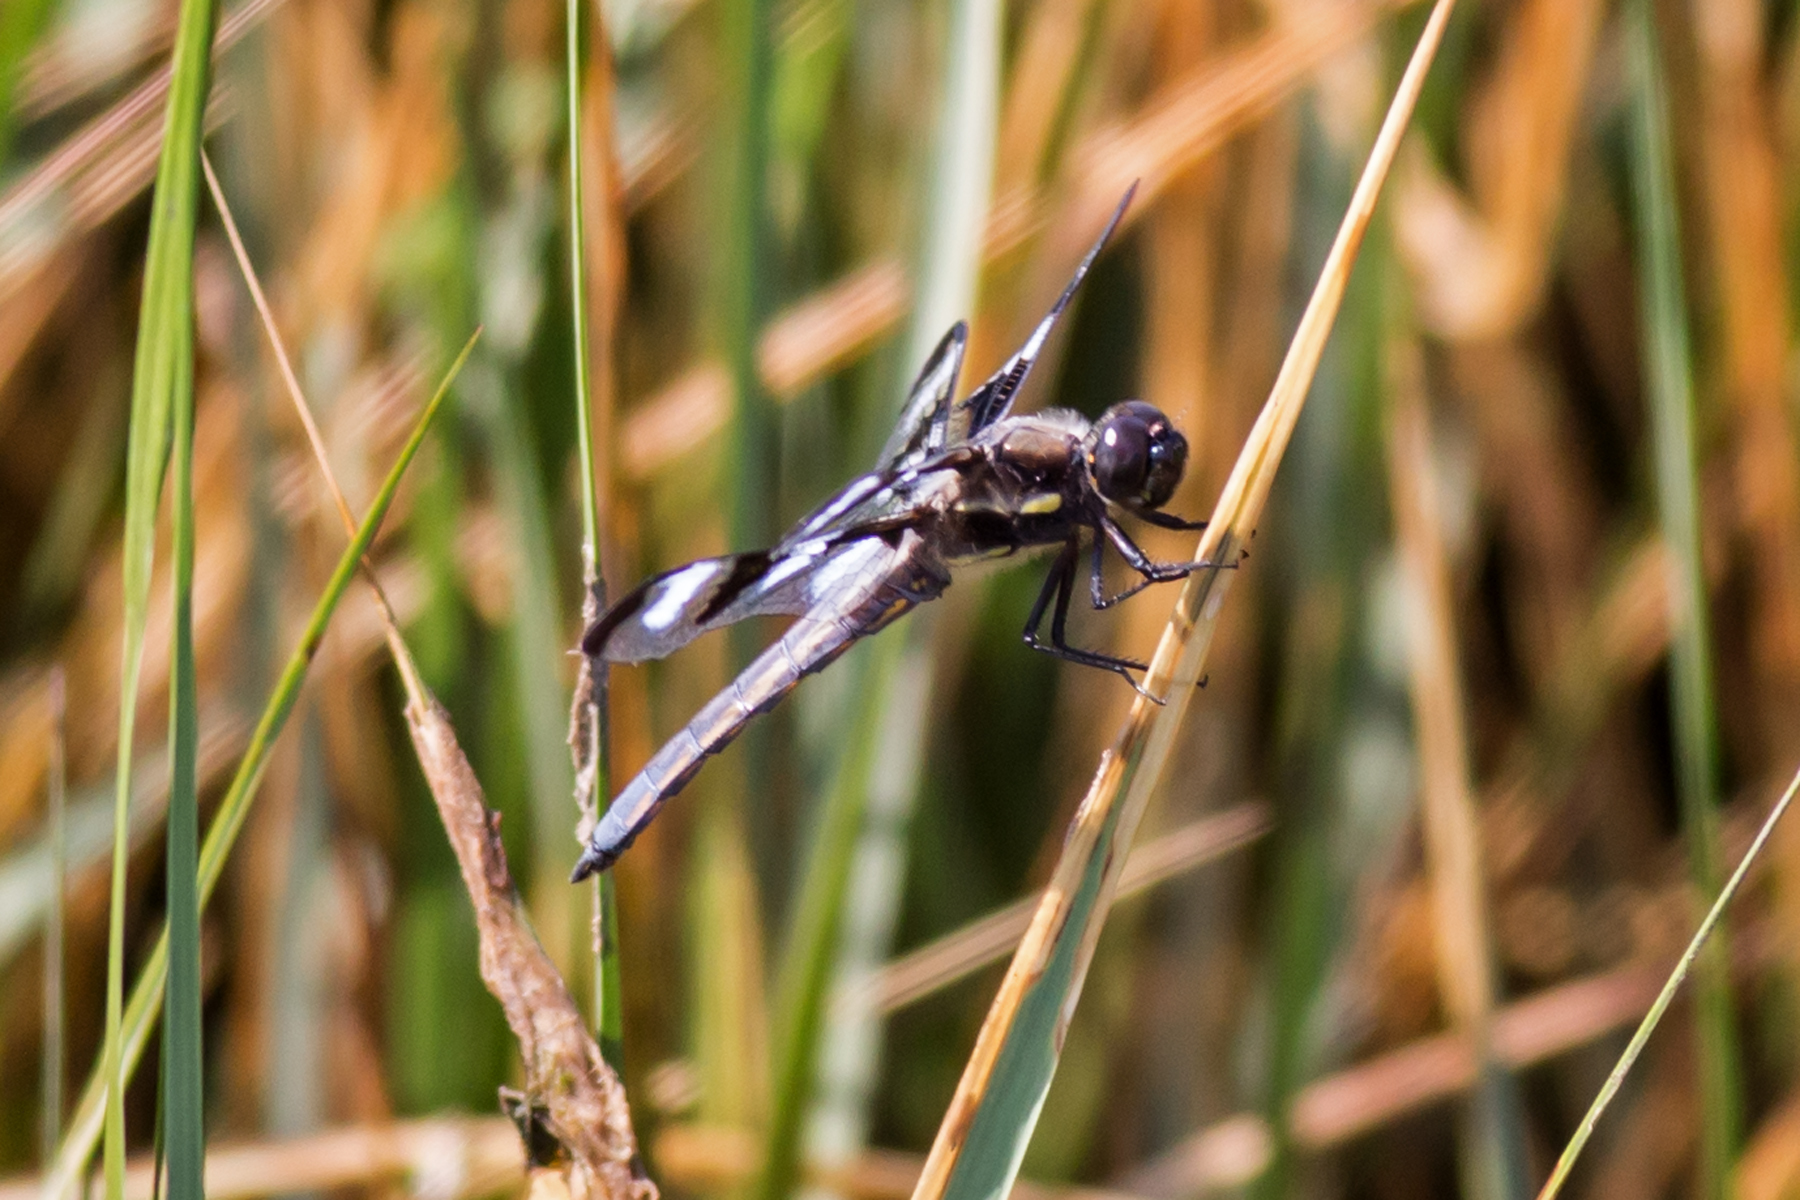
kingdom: Animalia
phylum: Arthropoda
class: Insecta
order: Odonata
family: Libellulidae
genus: Libellula
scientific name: Libellula pulchella
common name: Twelve-spotted skimmer
